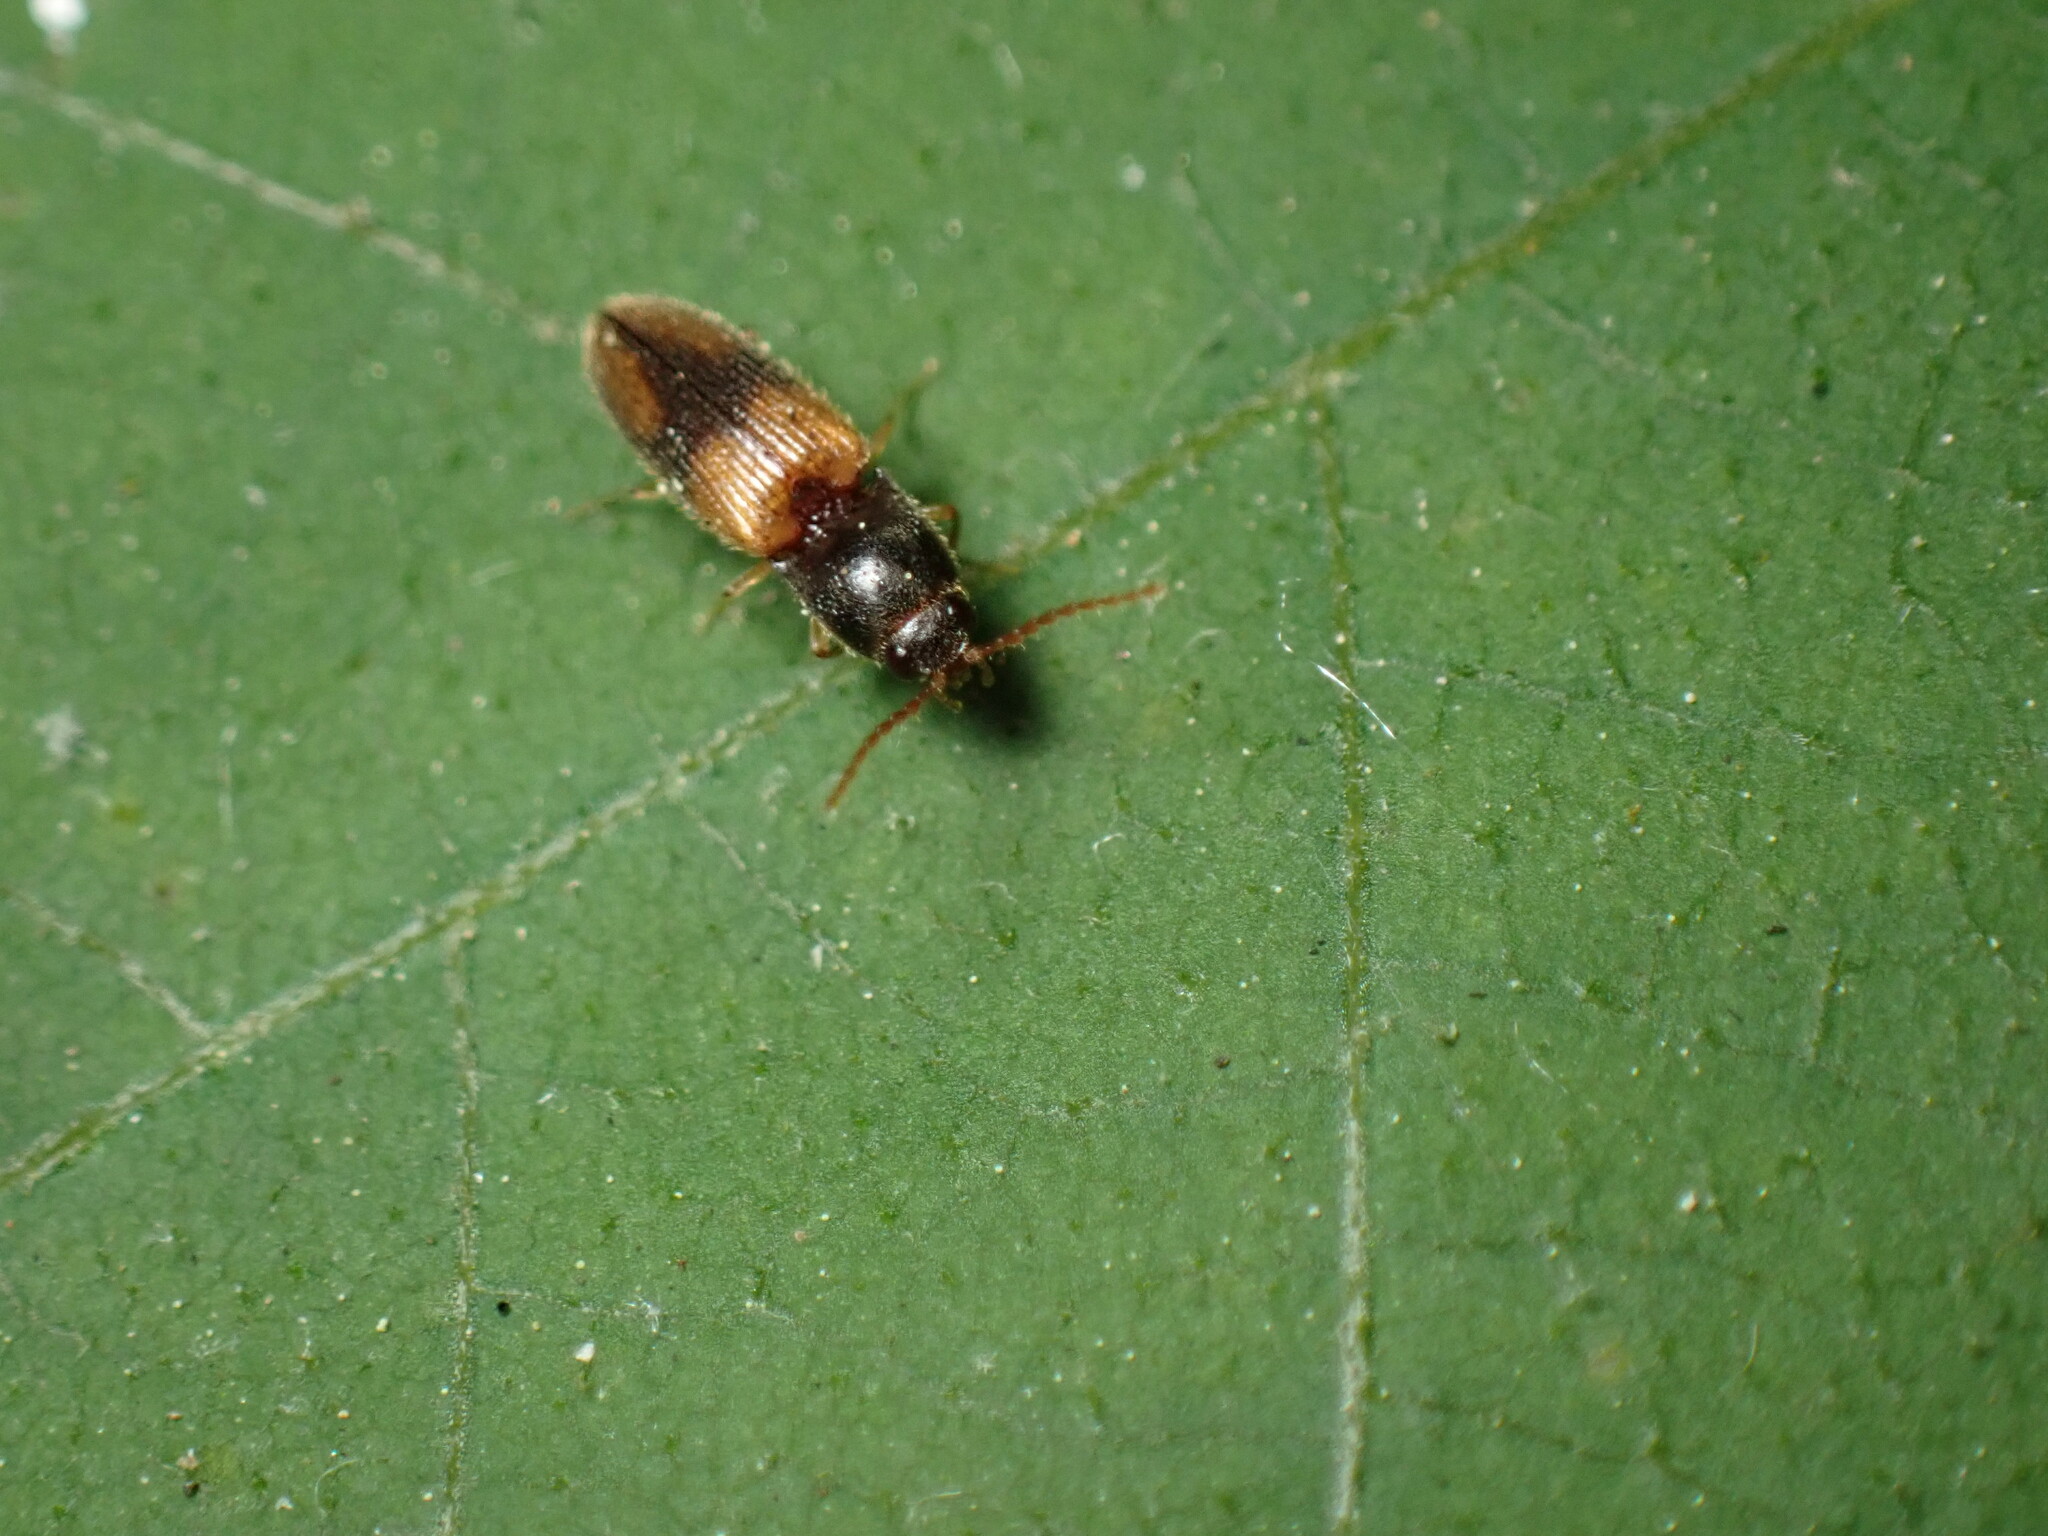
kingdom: Animalia
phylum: Arthropoda
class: Insecta
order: Coleoptera
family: Elateridae
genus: Horistonotus
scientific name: Horistonotus curiatus
